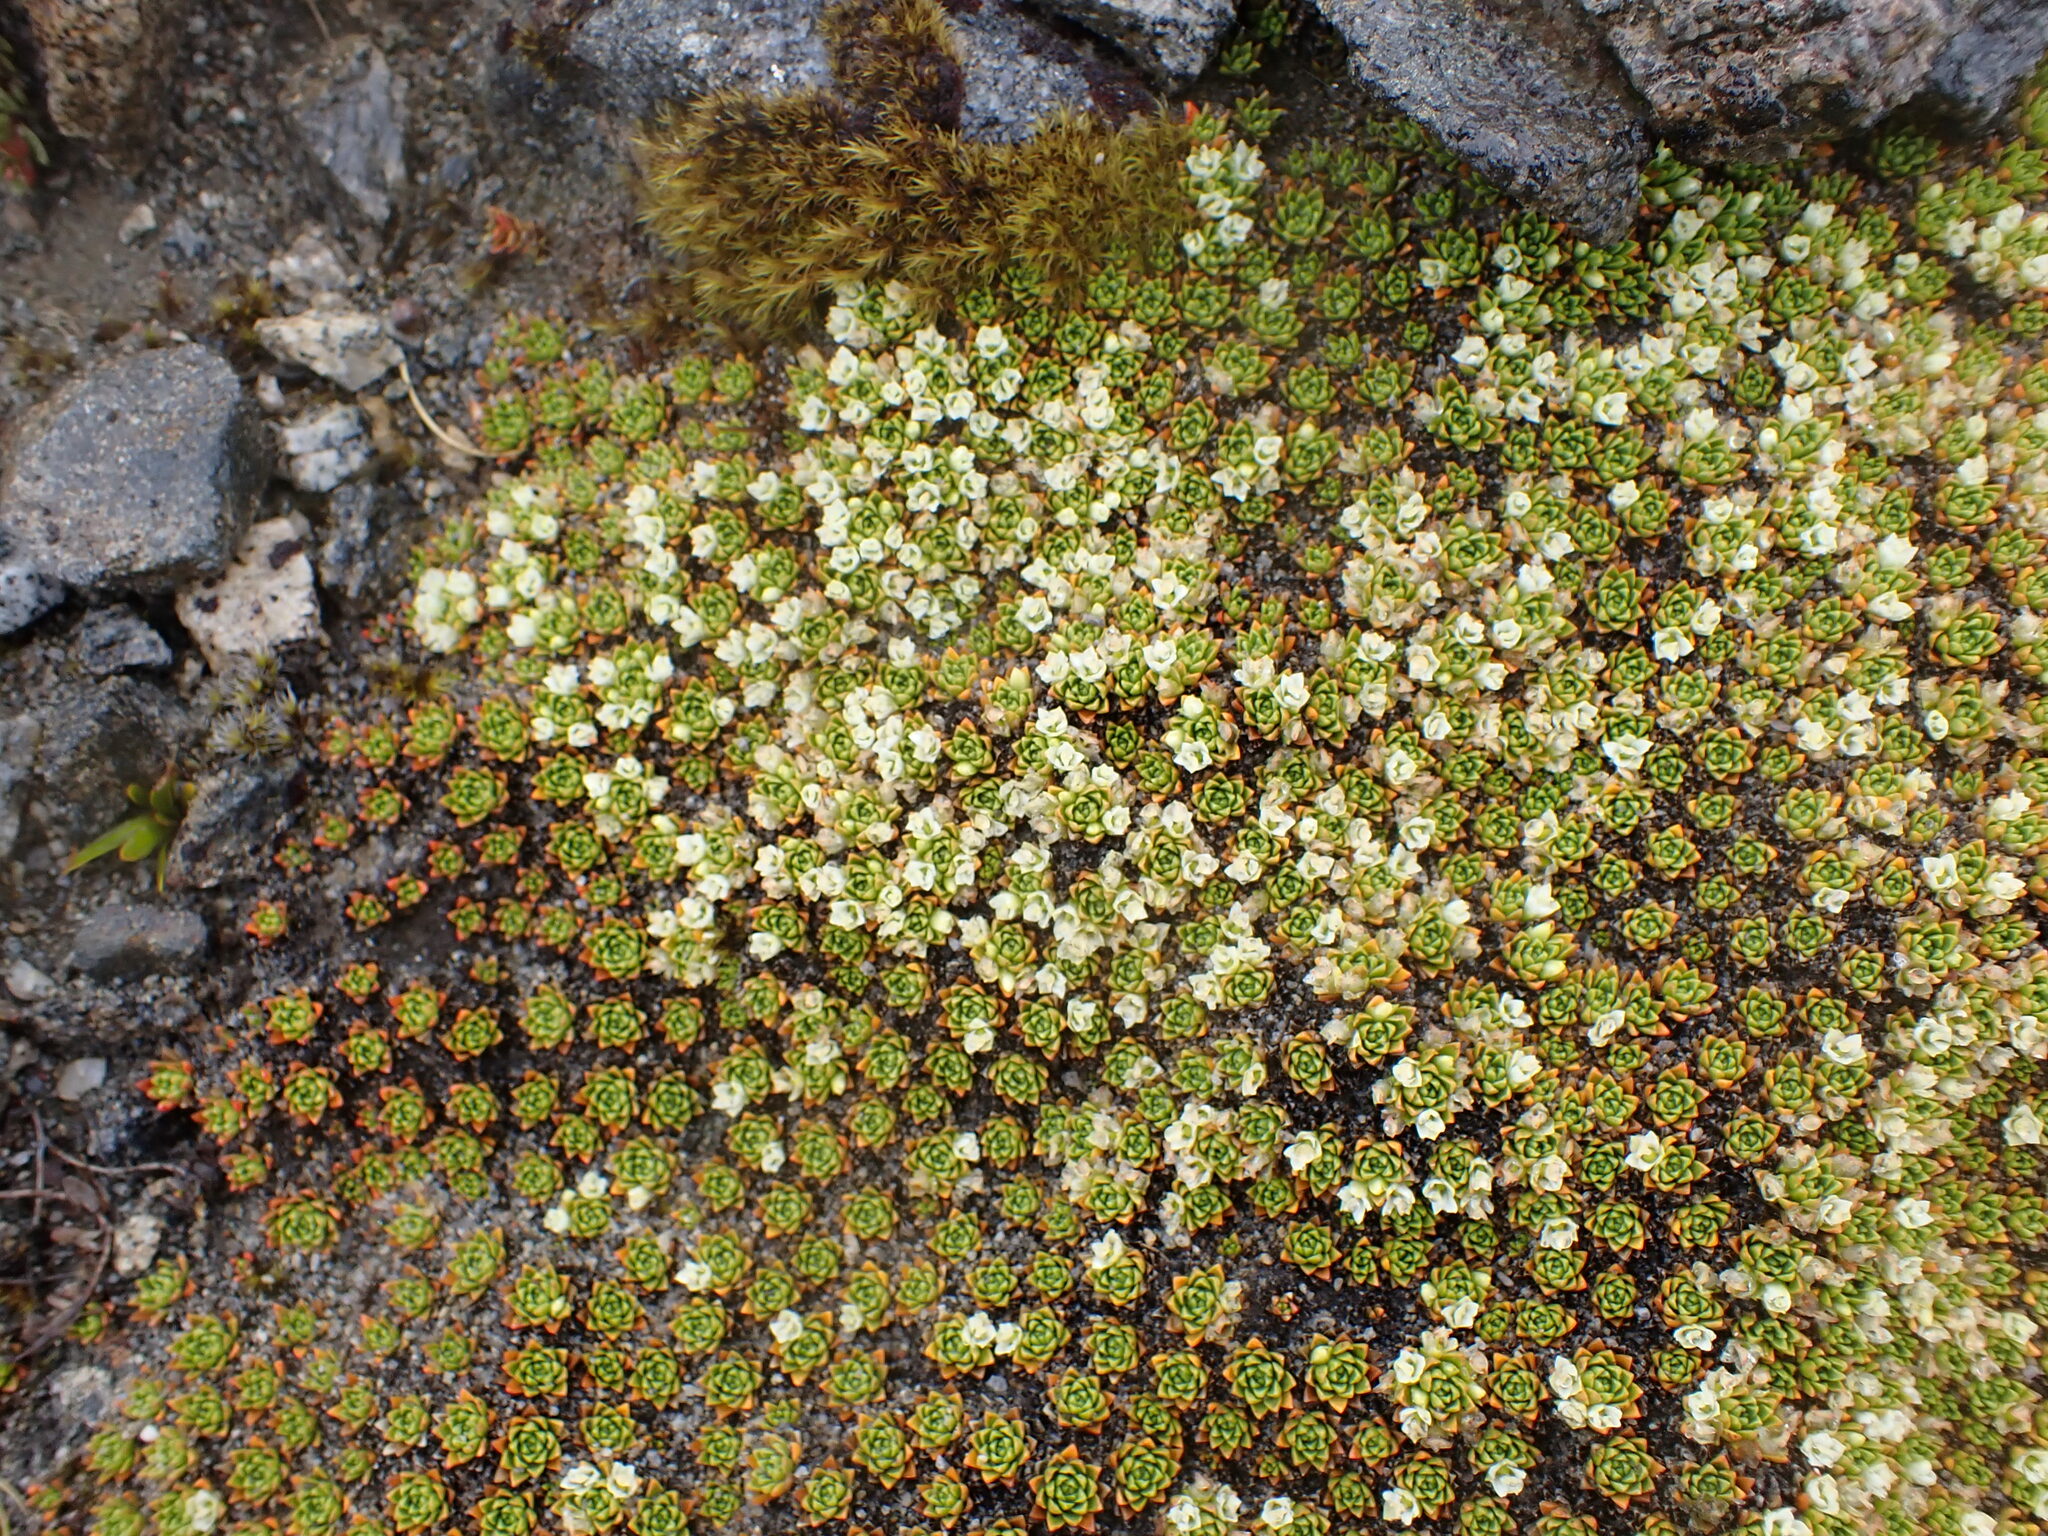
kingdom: Plantae
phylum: Tracheophyta
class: Magnoliopsida
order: Caryophyllales
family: Montiaceae
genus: Hectorella
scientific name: Hectorella caespitosa
